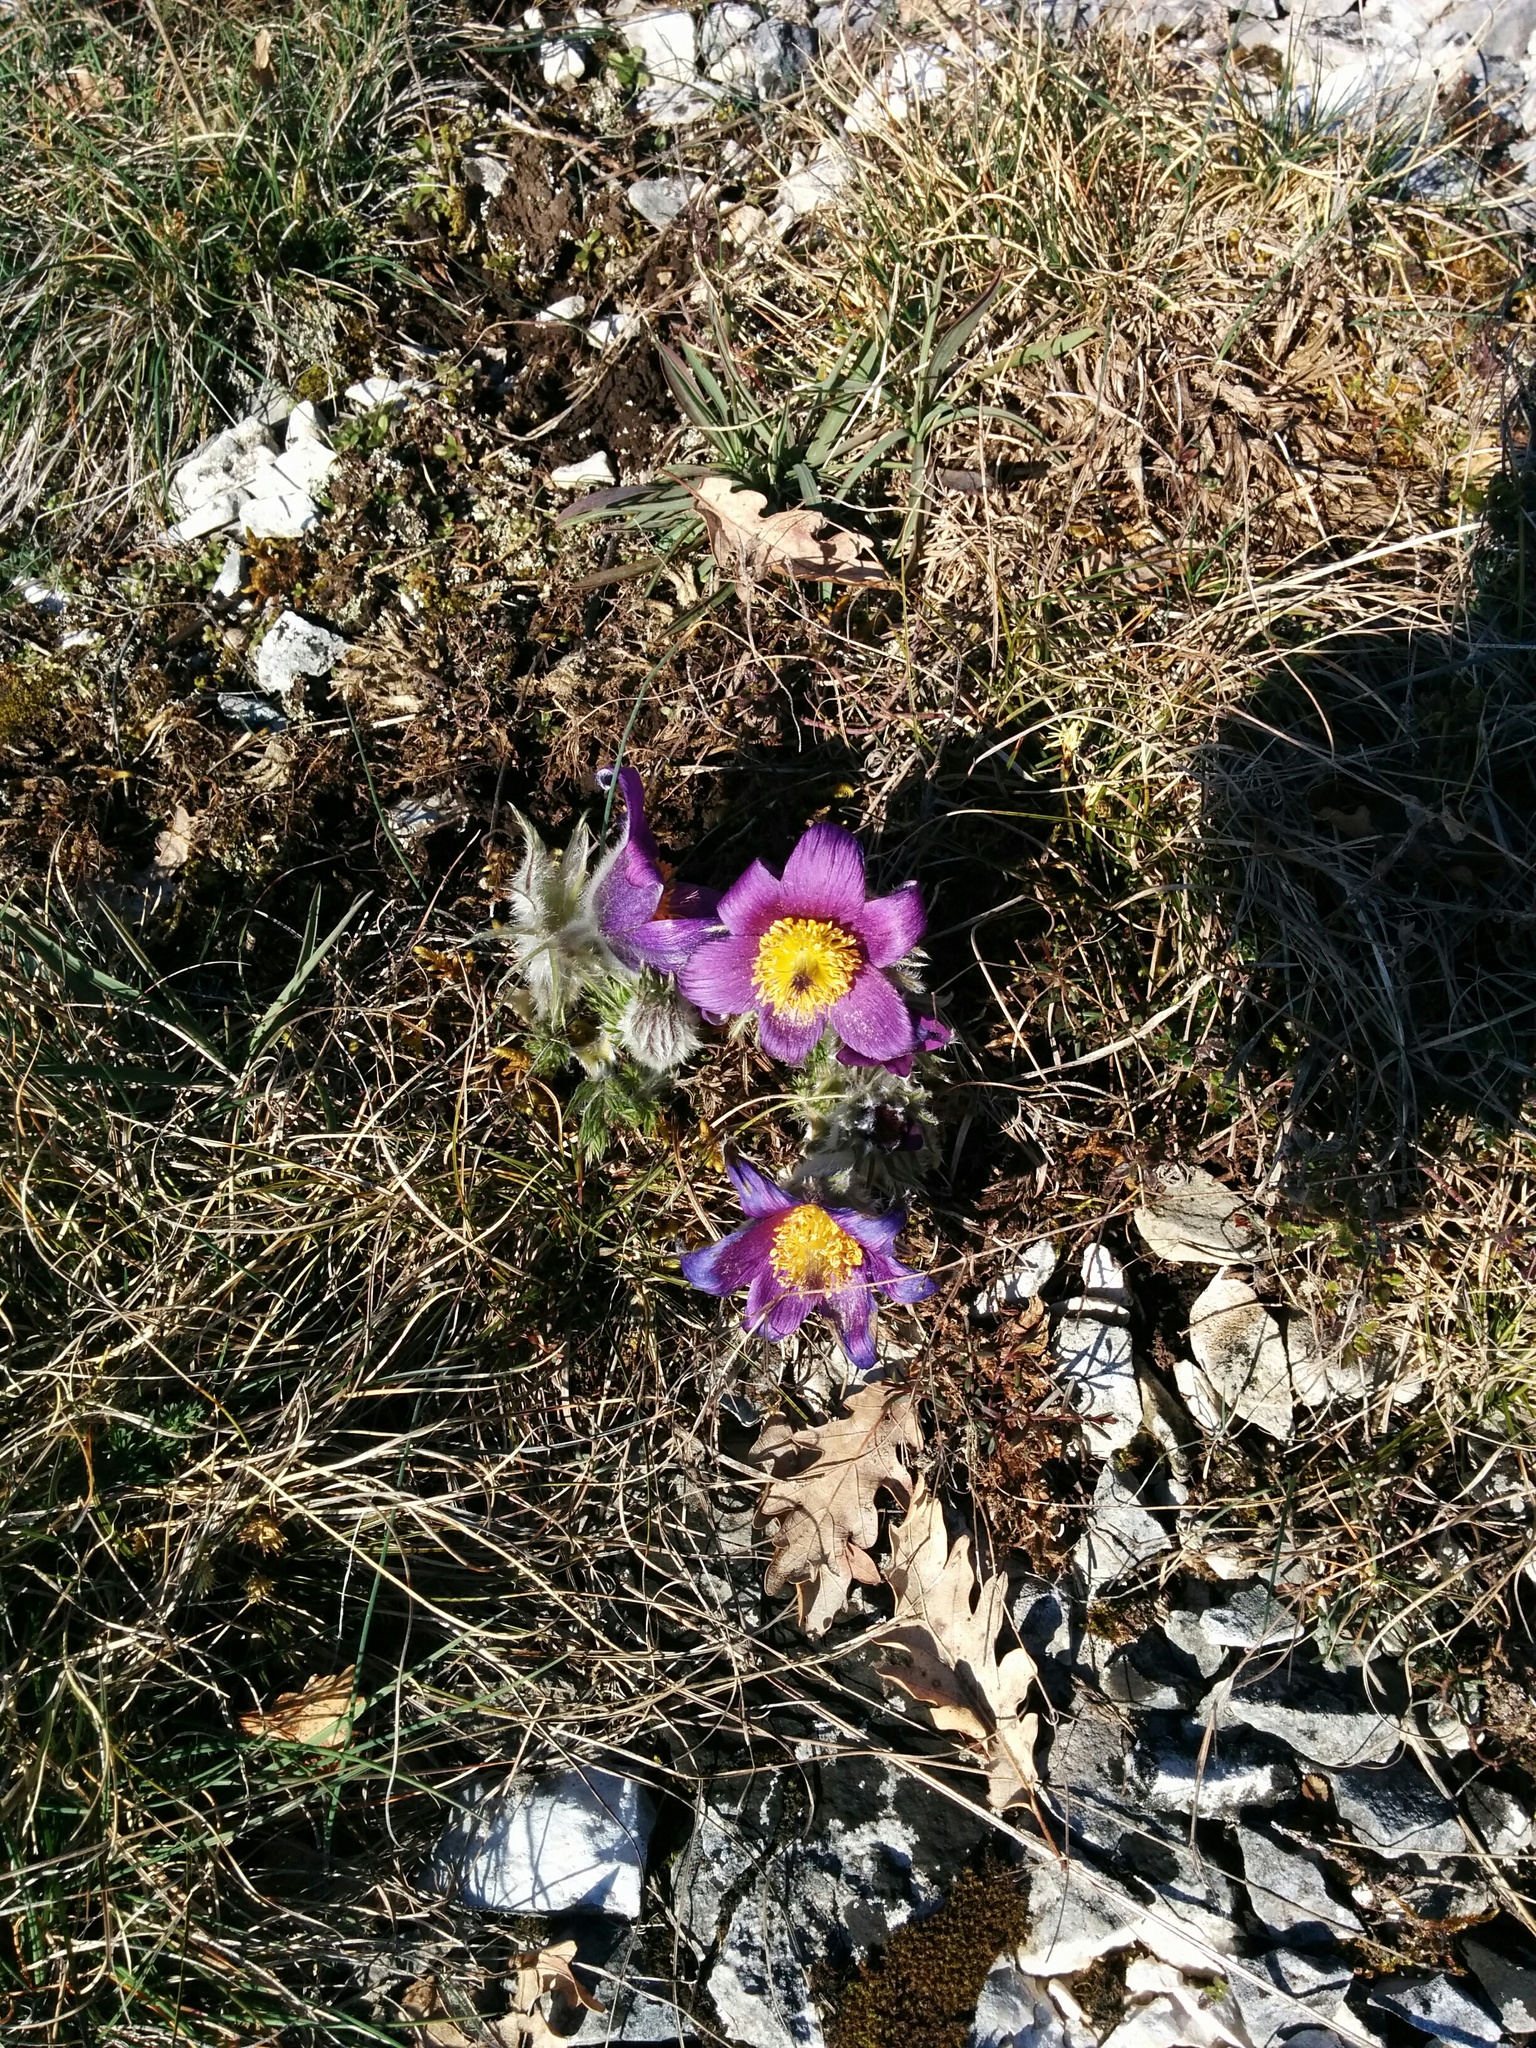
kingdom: Plantae
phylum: Tracheophyta
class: Magnoliopsida
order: Ranunculales
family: Ranunculaceae
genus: Pulsatilla
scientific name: Pulsatilla vulgaris
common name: Pasqueflower
